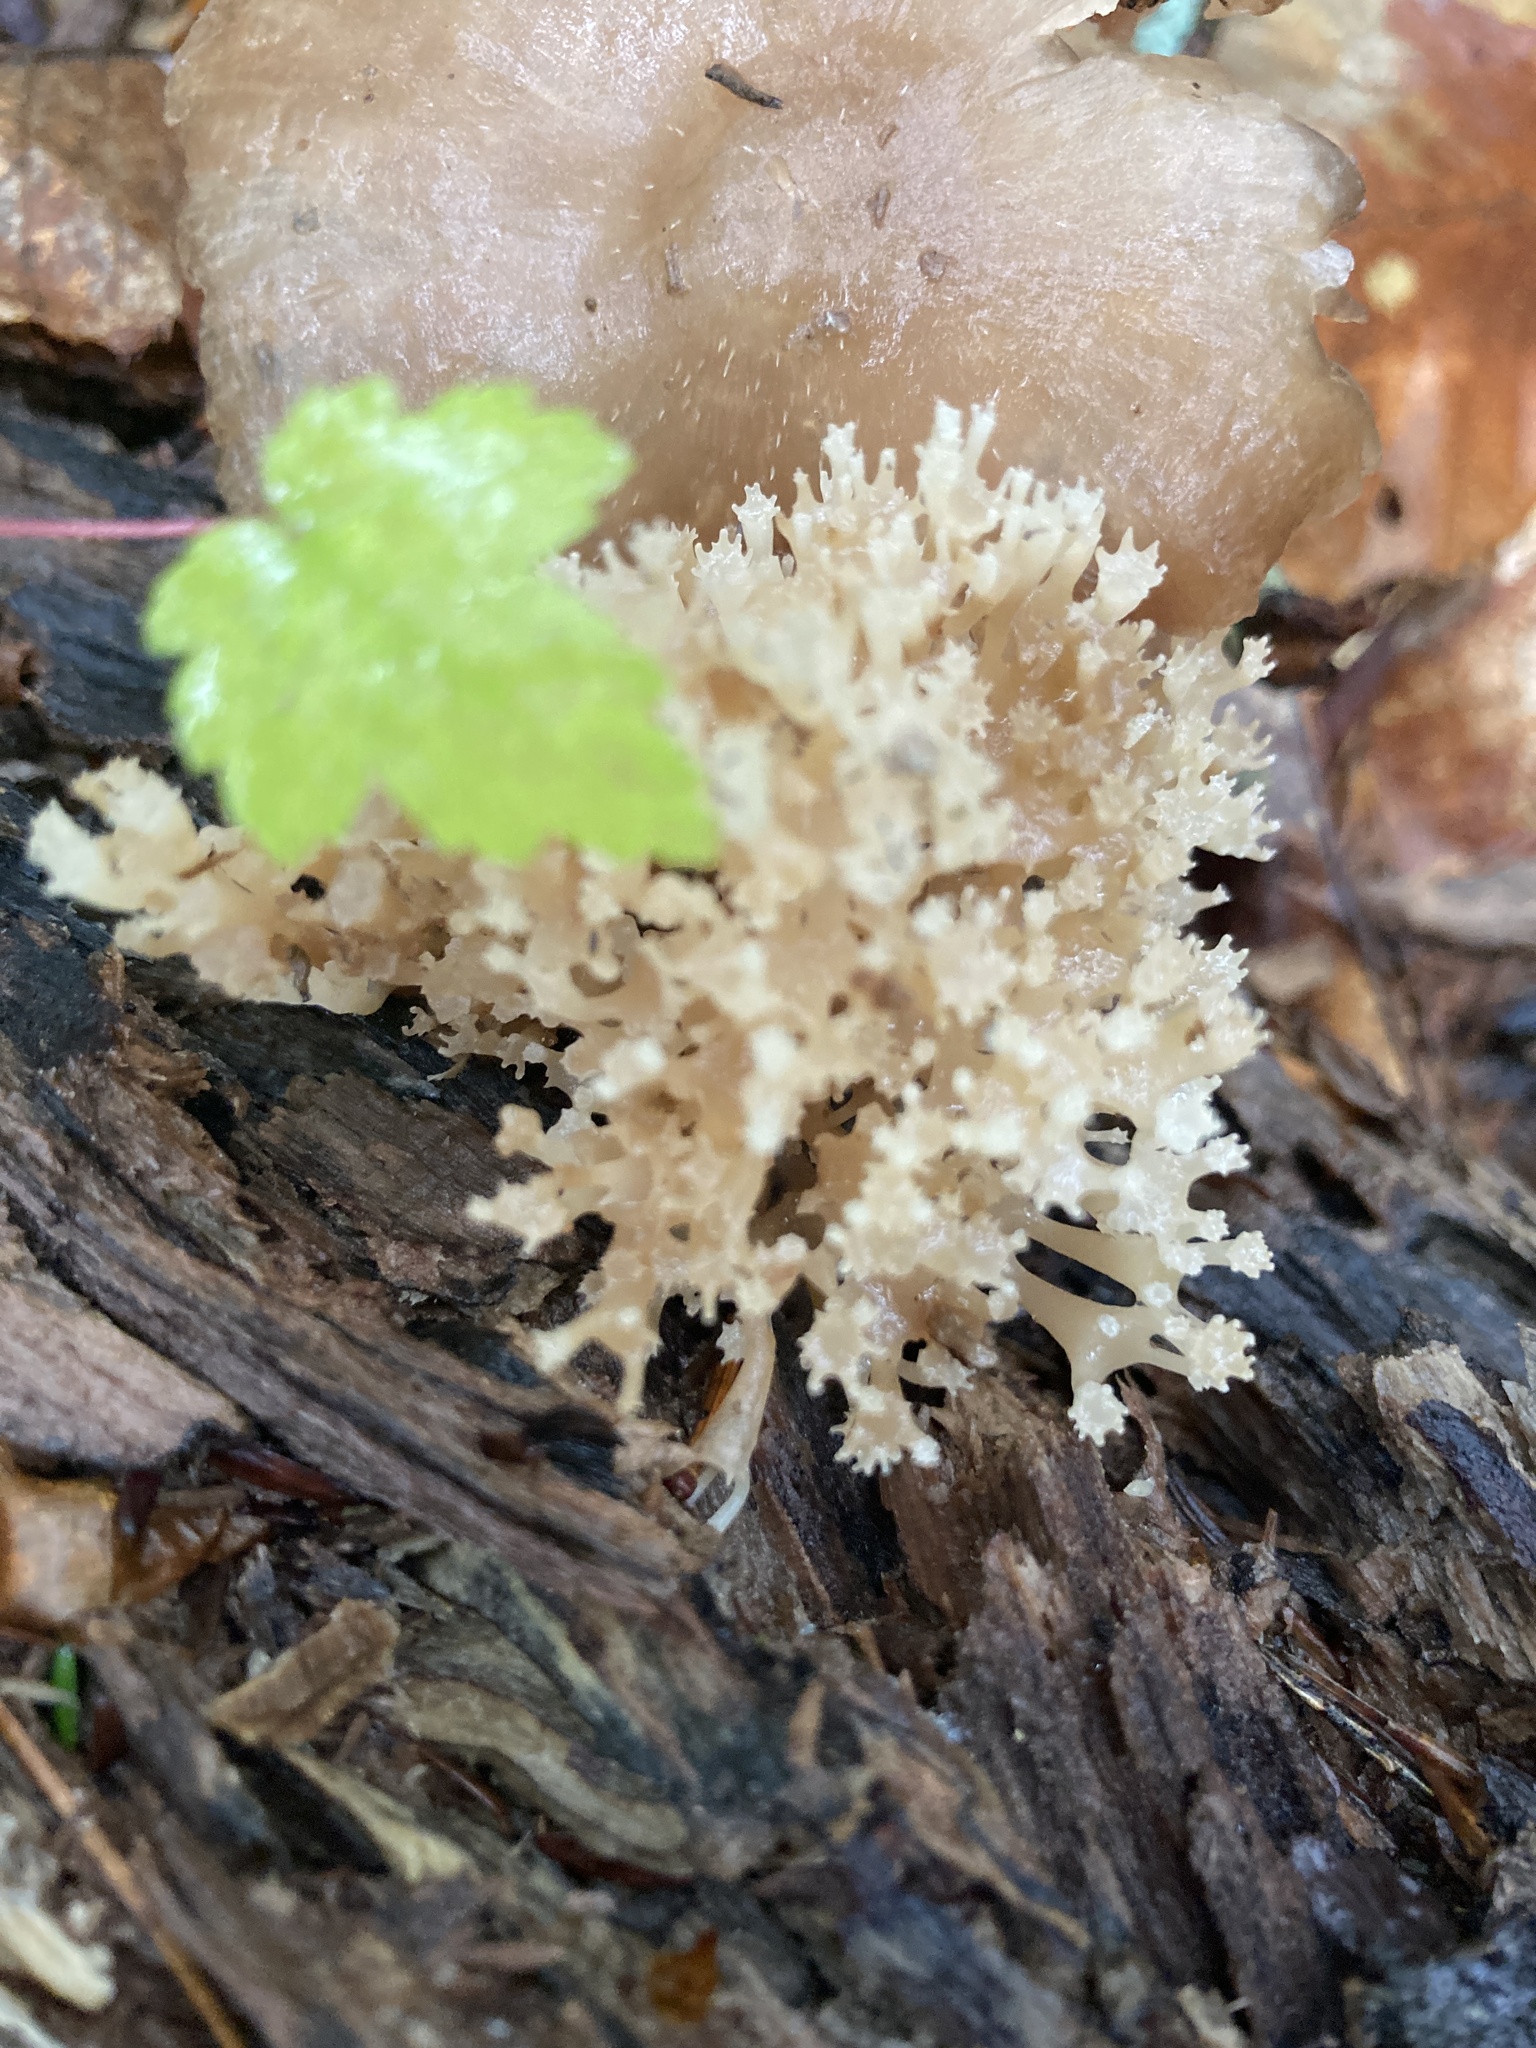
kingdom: Fungi
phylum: Basidiomycota
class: Agaricomycetes
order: Russulales
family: Auriscalpiaceae
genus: Artomyces
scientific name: Artomyces pyxidatus
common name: Crown-tipped coral fungus
